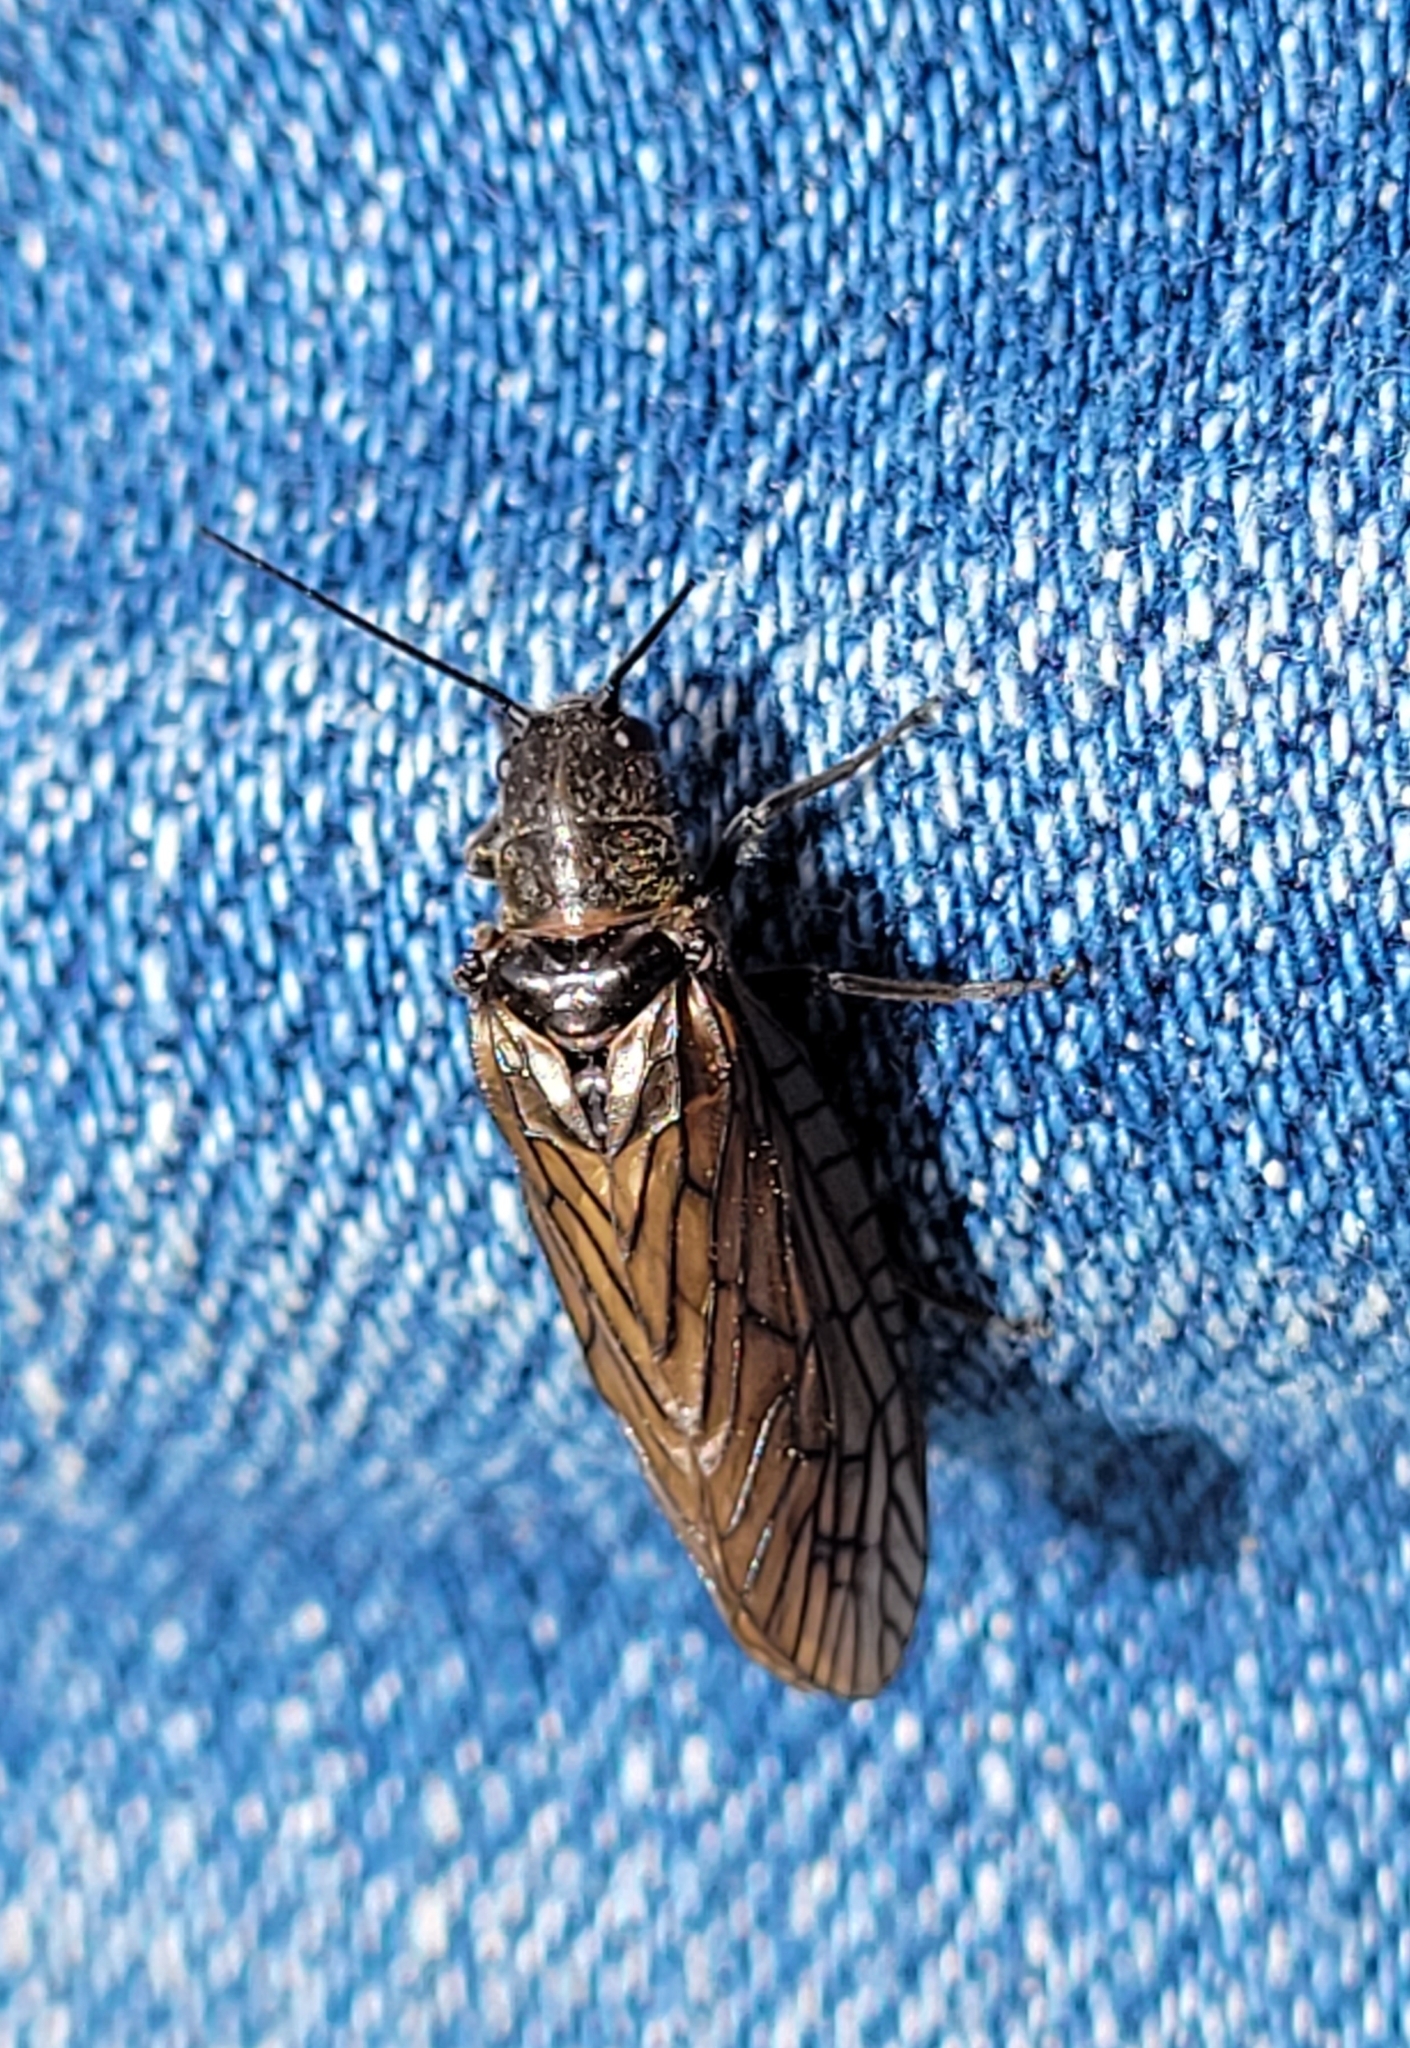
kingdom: Animalia
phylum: Arthropoda
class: Insecta
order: Megaloptera
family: Sialidae
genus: Sialis
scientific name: Sialis
